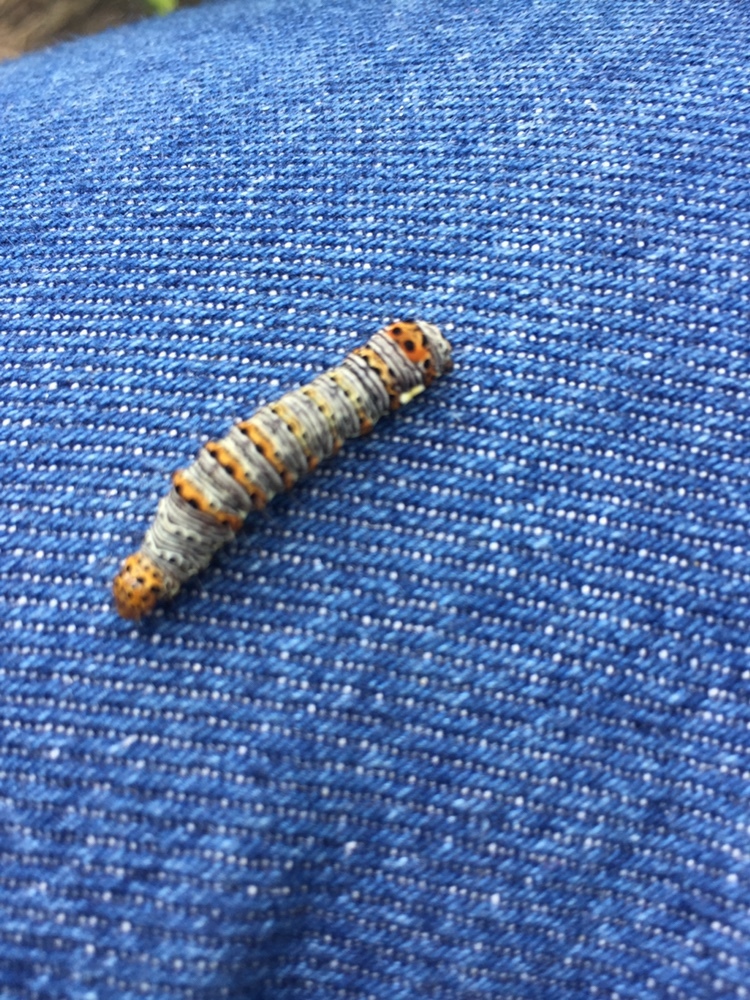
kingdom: Animalia
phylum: Arthropoda
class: Insecta
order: Lepidoptera
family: Noctuidae
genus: Alypia
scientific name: Alypia octomaculata
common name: Eight-spotted forester
